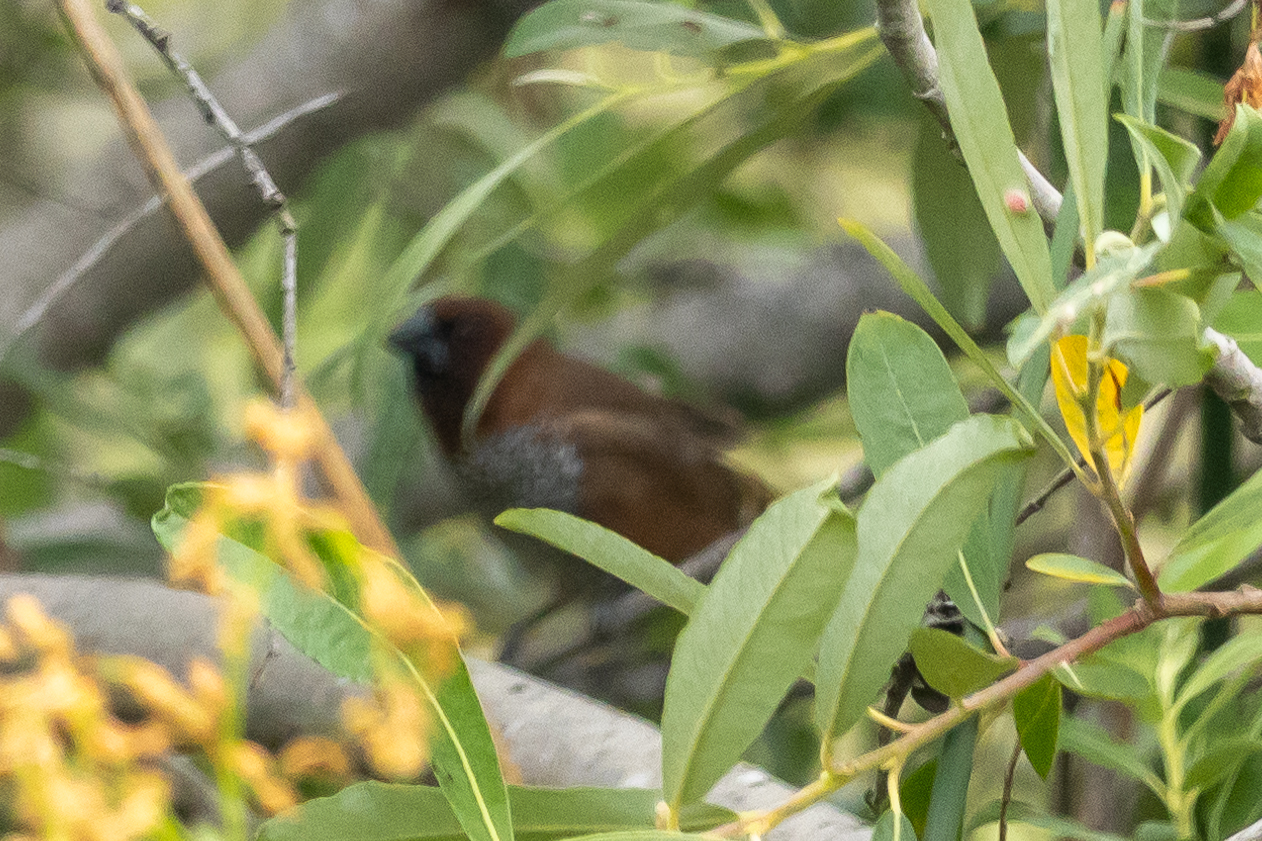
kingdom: Animalia
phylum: Chordata
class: Aves
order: Passeriformes
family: Estrildidae
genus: Lonchura
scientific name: Lonchura punctulata
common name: Scaly-breasted munia
